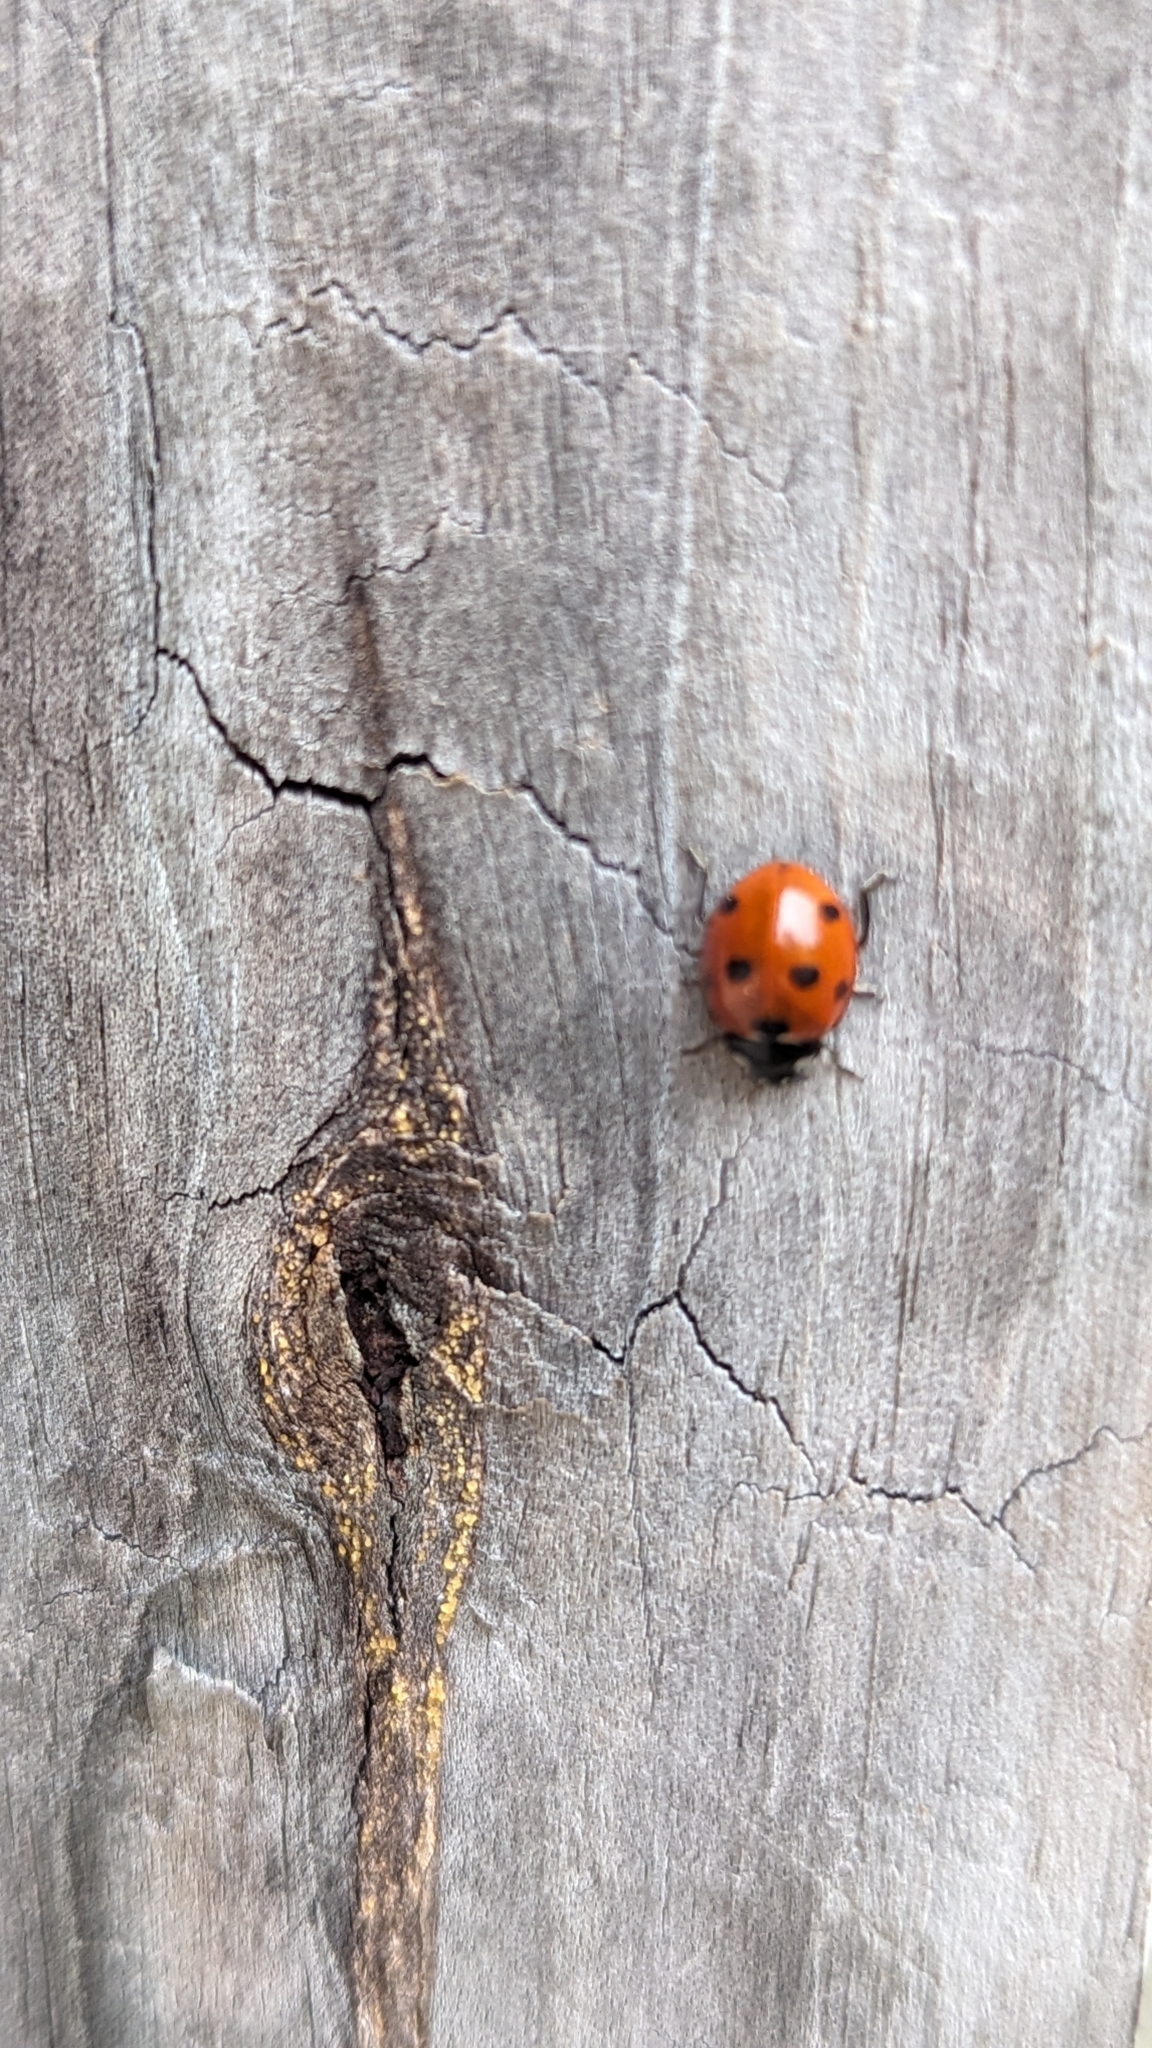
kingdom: Animalia
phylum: Arthropoda
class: Insecta
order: Coleoptera
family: Coccinellidae
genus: Coccinella
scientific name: Coccinella septempunctata
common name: Sevenspotted lady beetle
